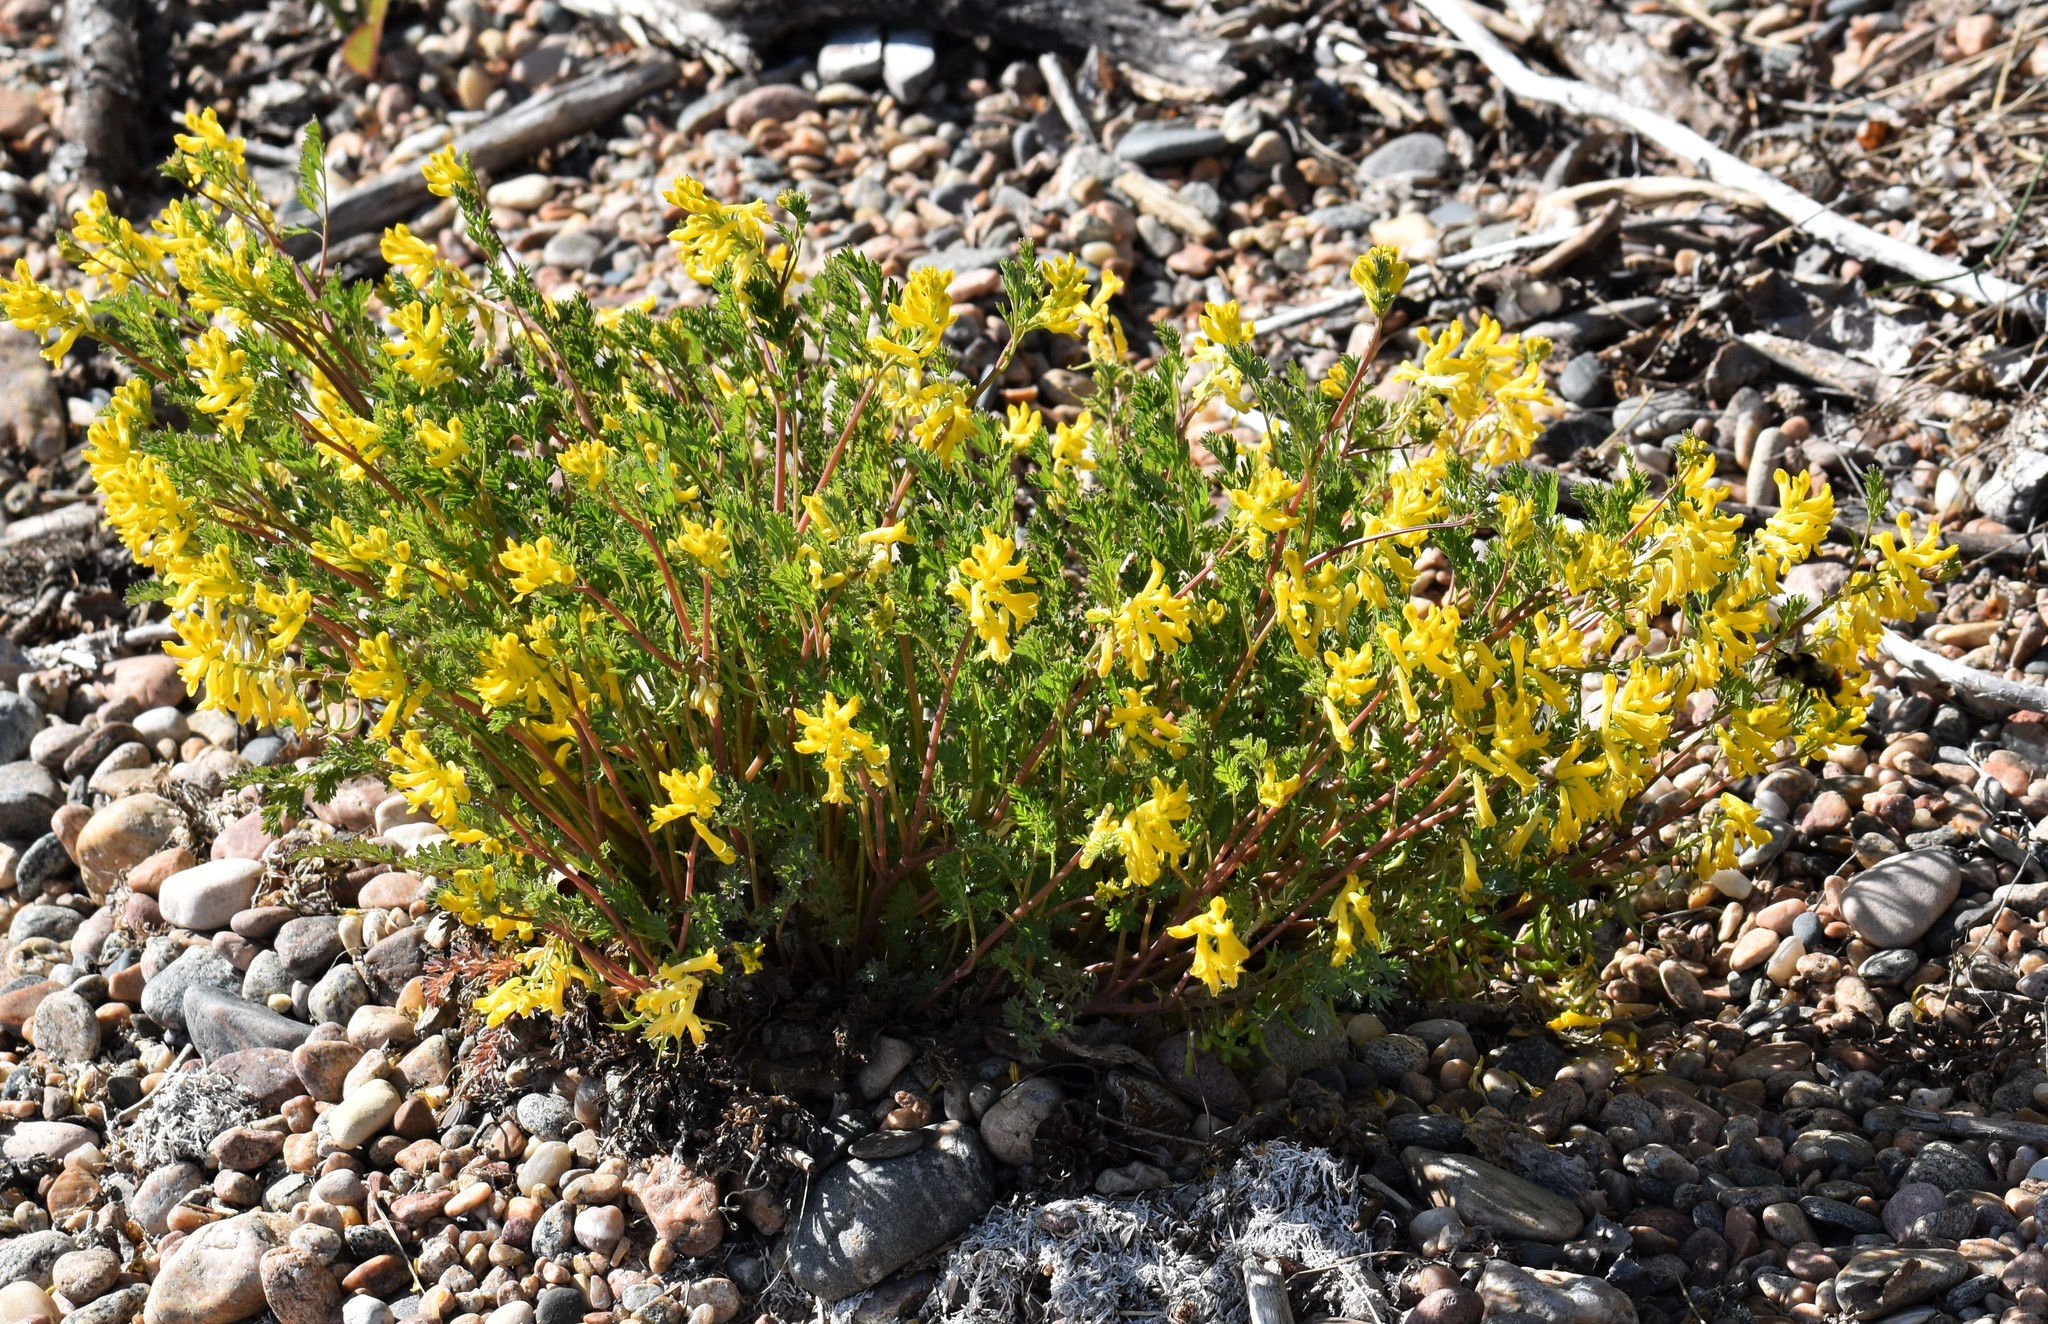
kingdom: Plantae
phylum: Tracheophyta
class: Magnoliopsida
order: Ranunculales
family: Papaveraceae
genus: Corydalis
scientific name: Corydalis aurea
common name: Golden corydalis
